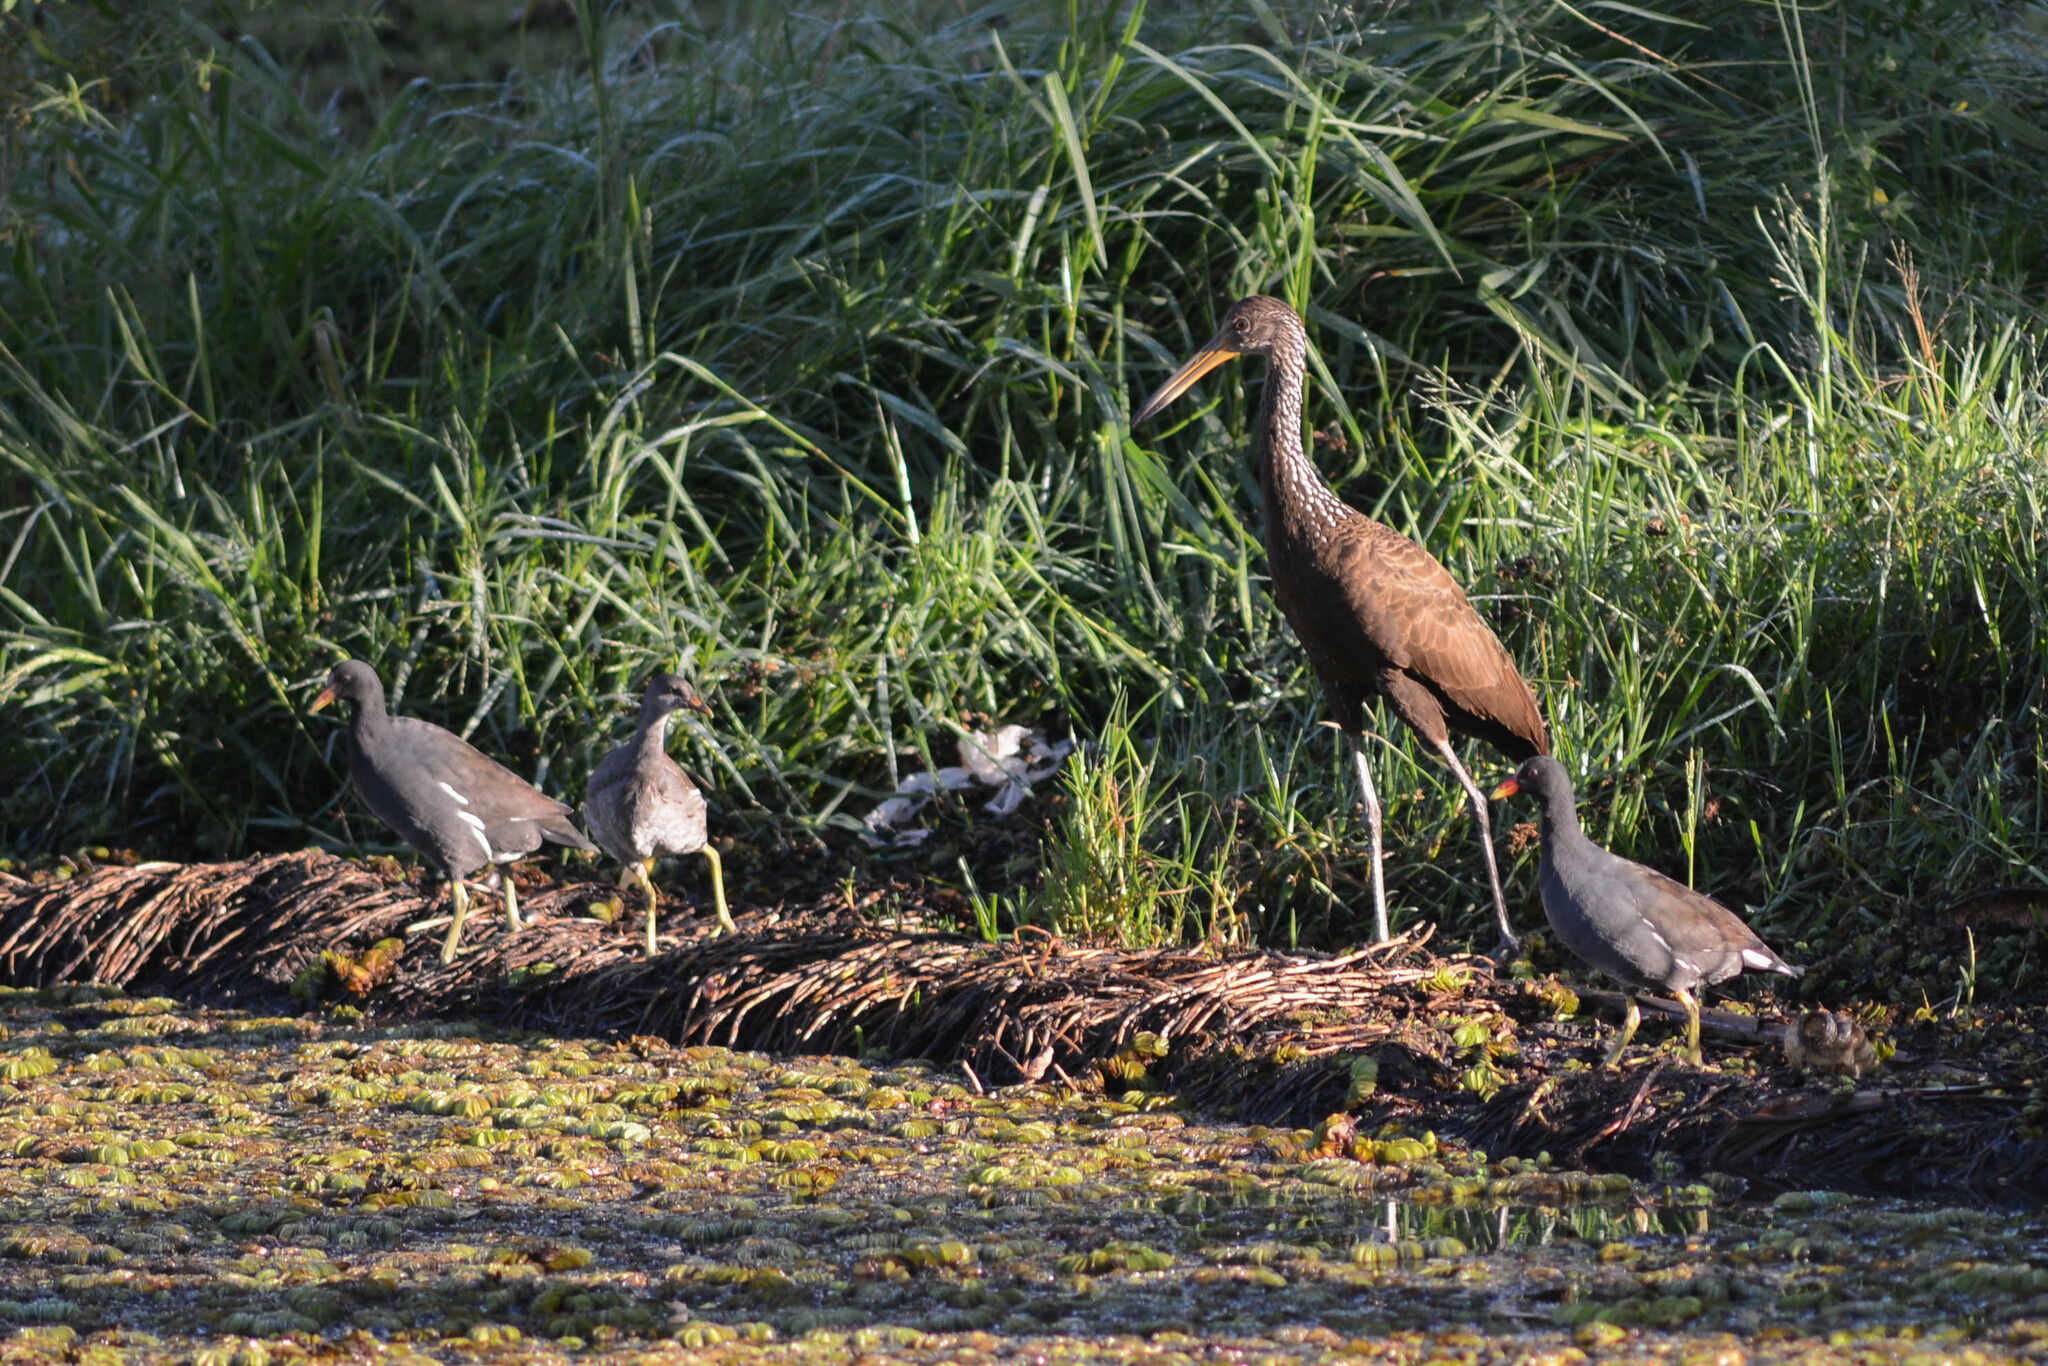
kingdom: Animalia
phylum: Chordata
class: Aves
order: Gruiformes
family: Aramidae
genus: Aramus
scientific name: Aramus guarauna
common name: Limpkin
